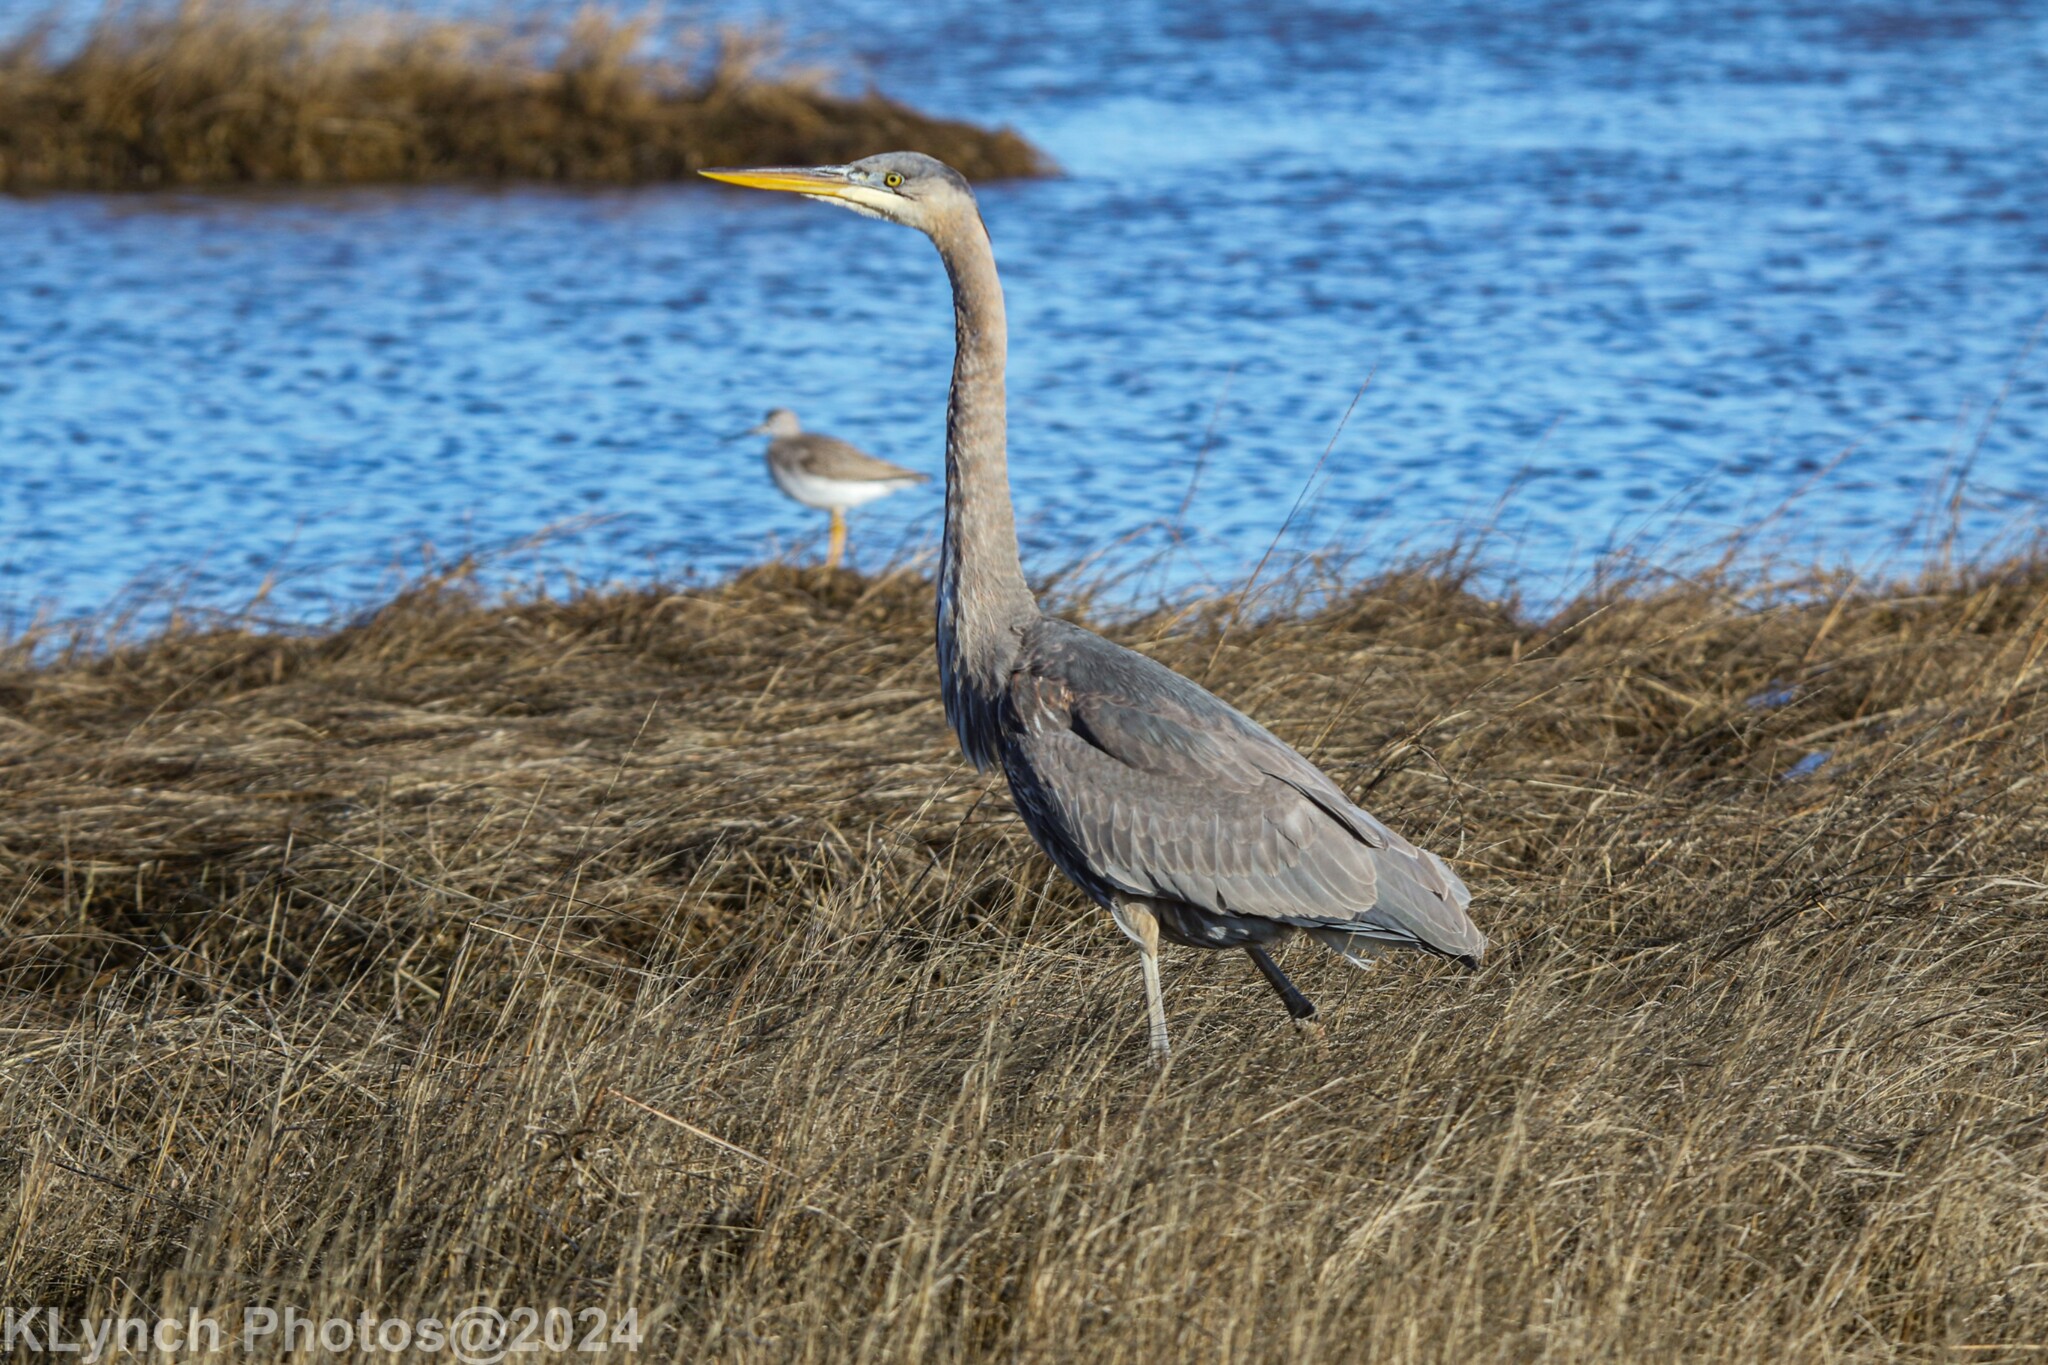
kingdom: Animalia
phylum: Chordata
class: Aves
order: Pelecaniformes
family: Ardeidae
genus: Ardea
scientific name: Ardea herodias
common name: Great blue heron
